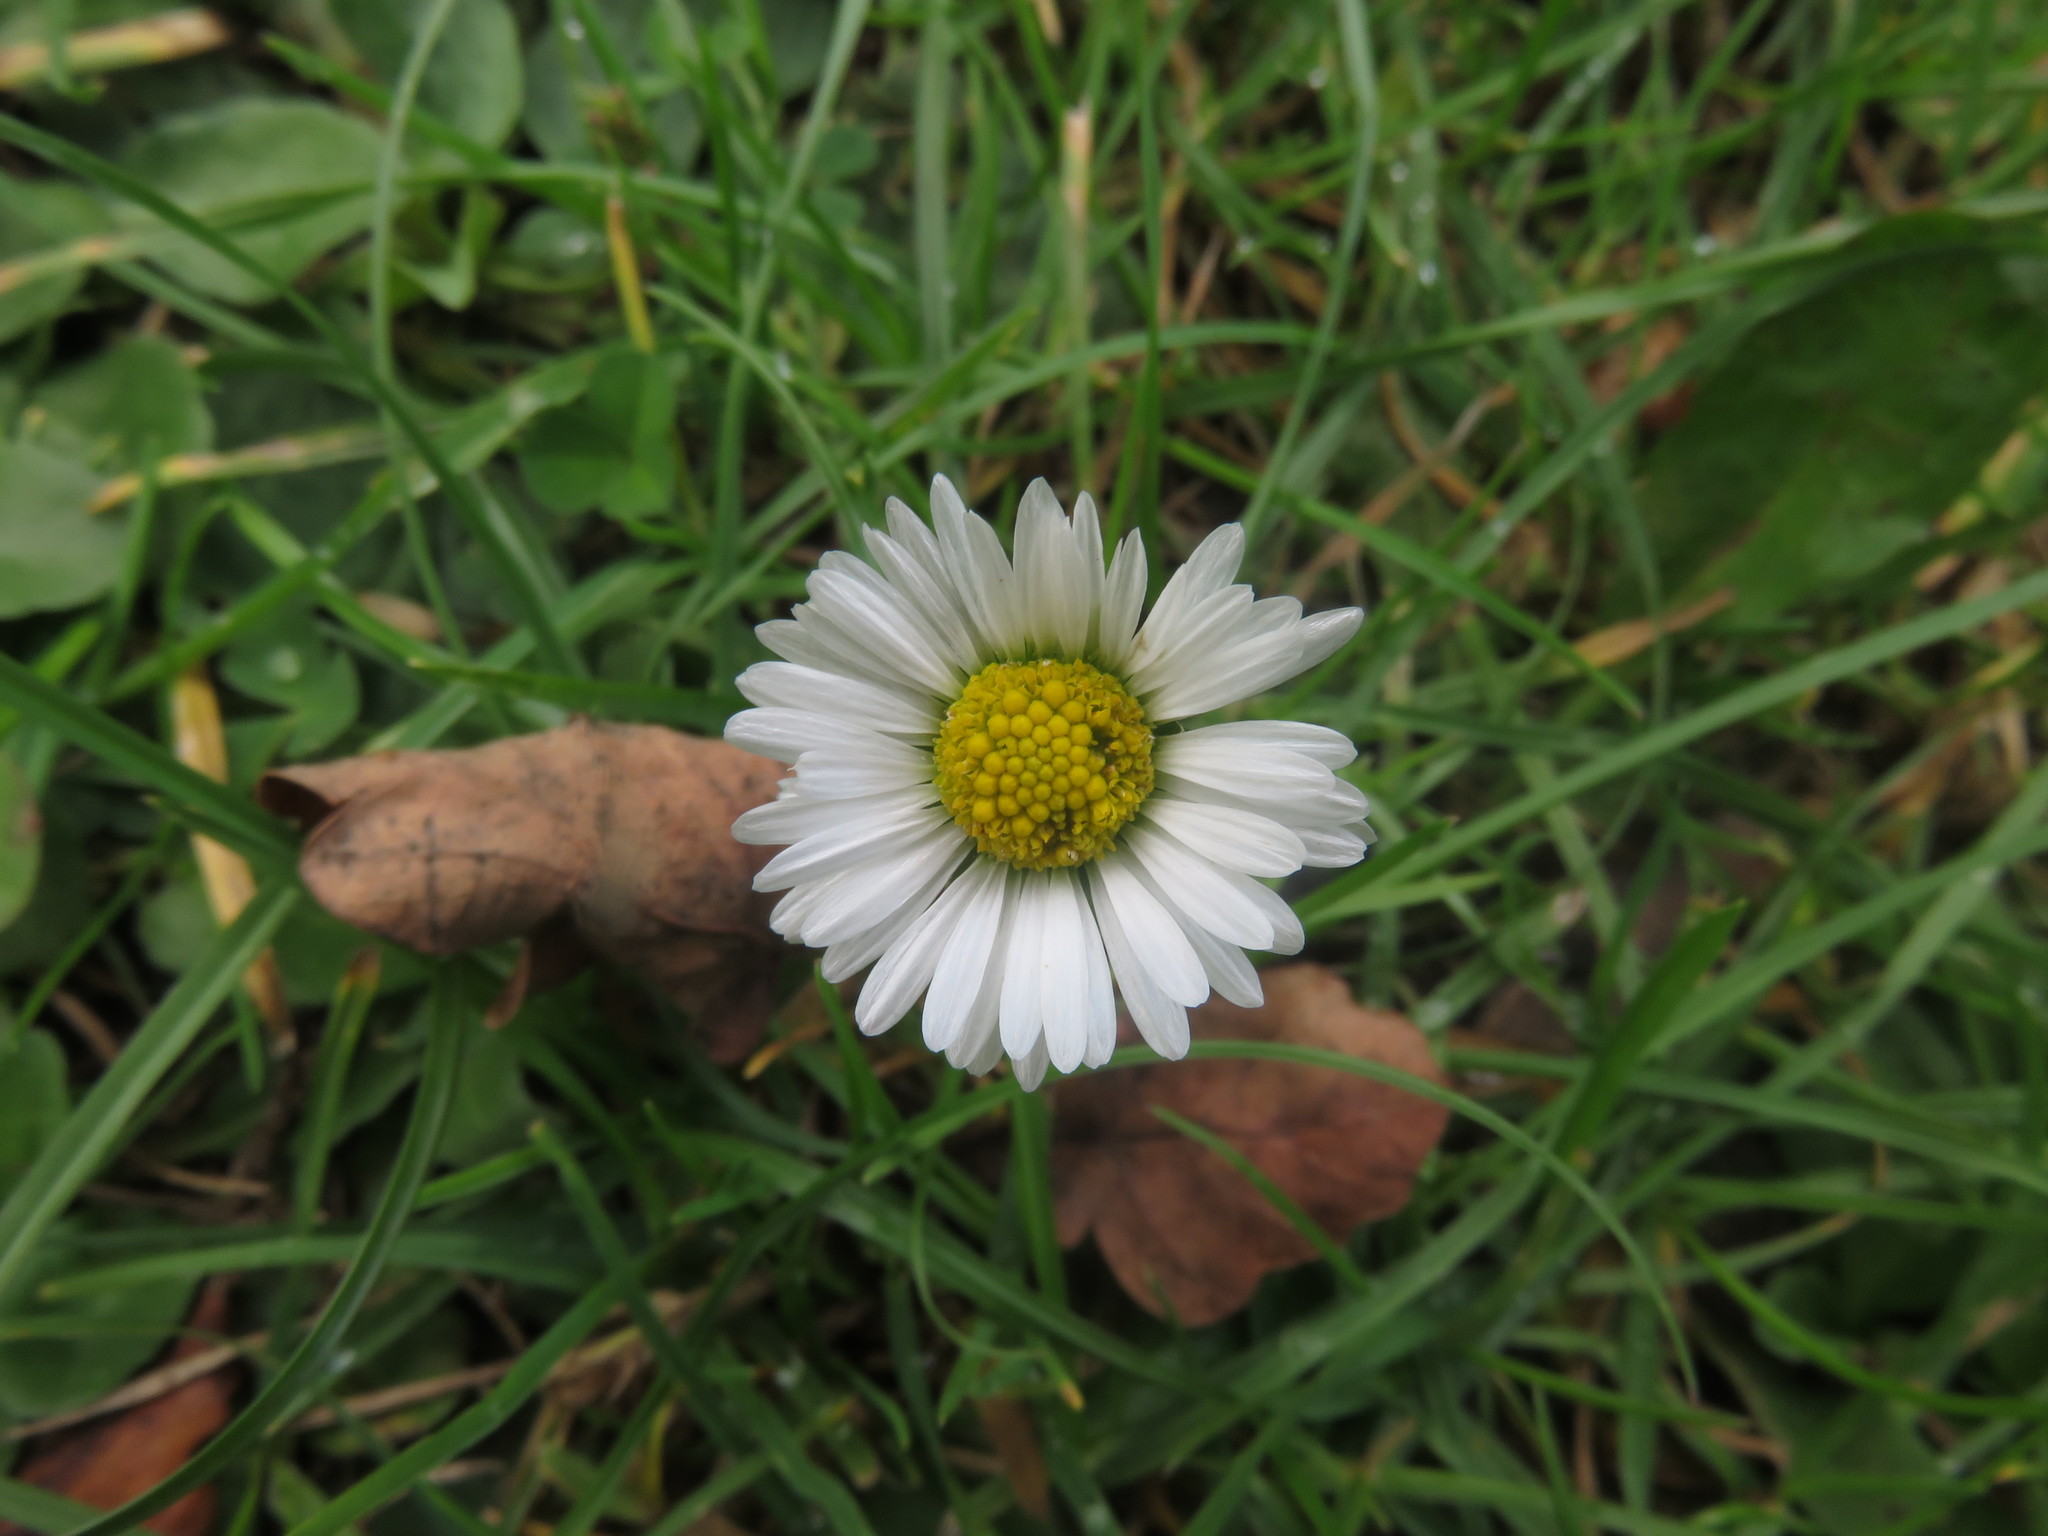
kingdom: Plantae
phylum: Tracheophyta
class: Magnoliopsida
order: Asterales
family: Asteraceae
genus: Bellis
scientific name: Bellis perennis
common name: Lawndaisy
